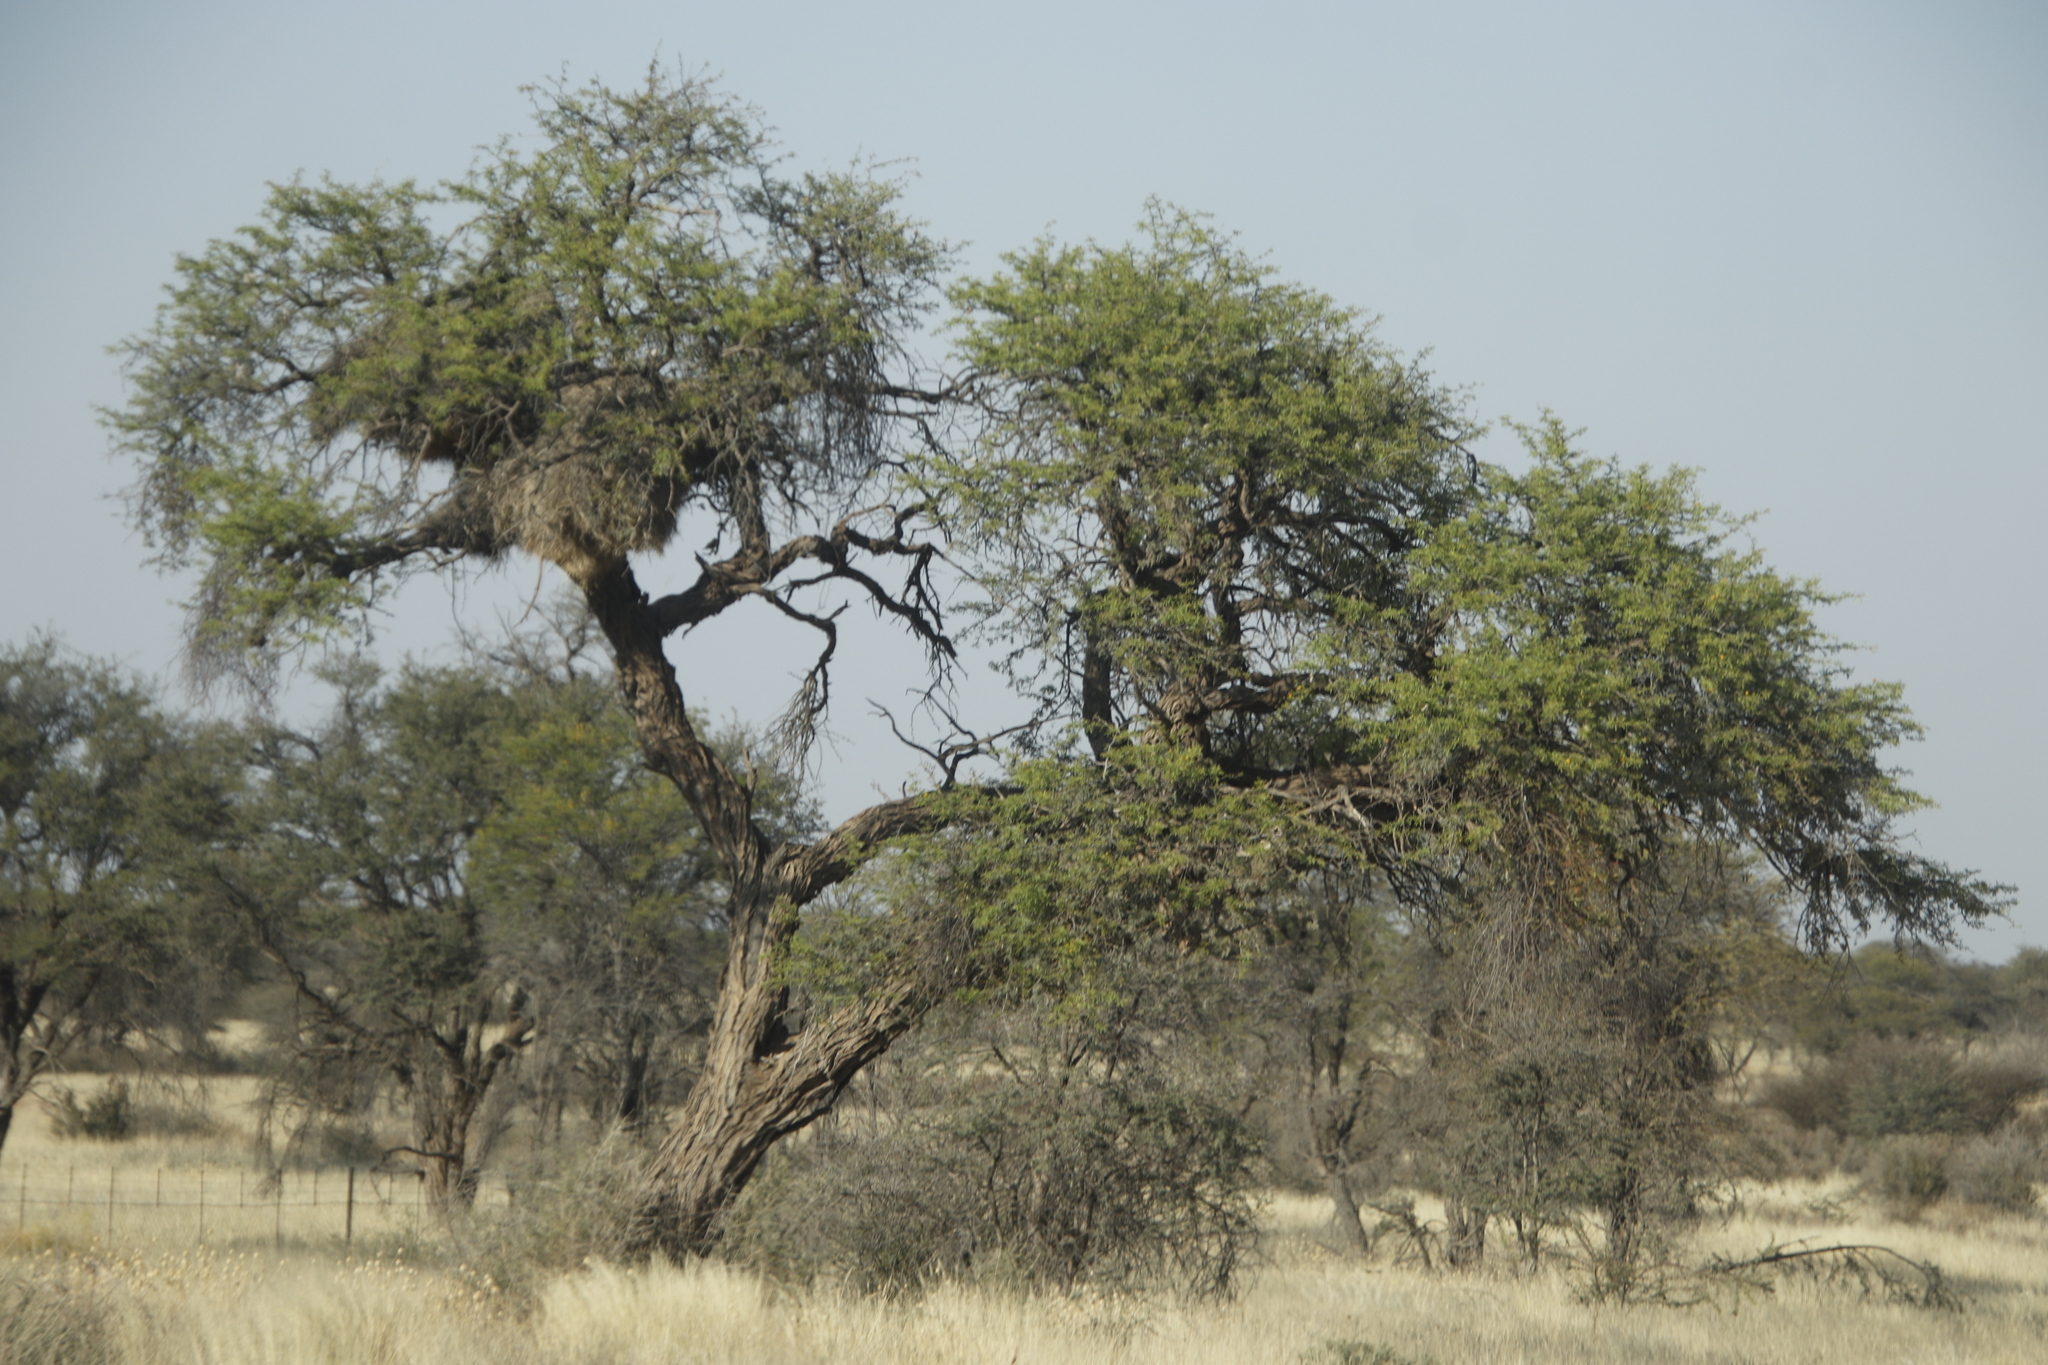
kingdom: Plantae
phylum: Tracheophyta
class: Magnoliopsida
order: Fabales
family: Fabaceae
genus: Vachellia
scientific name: Vachellia erioloba
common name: Camel thorn
